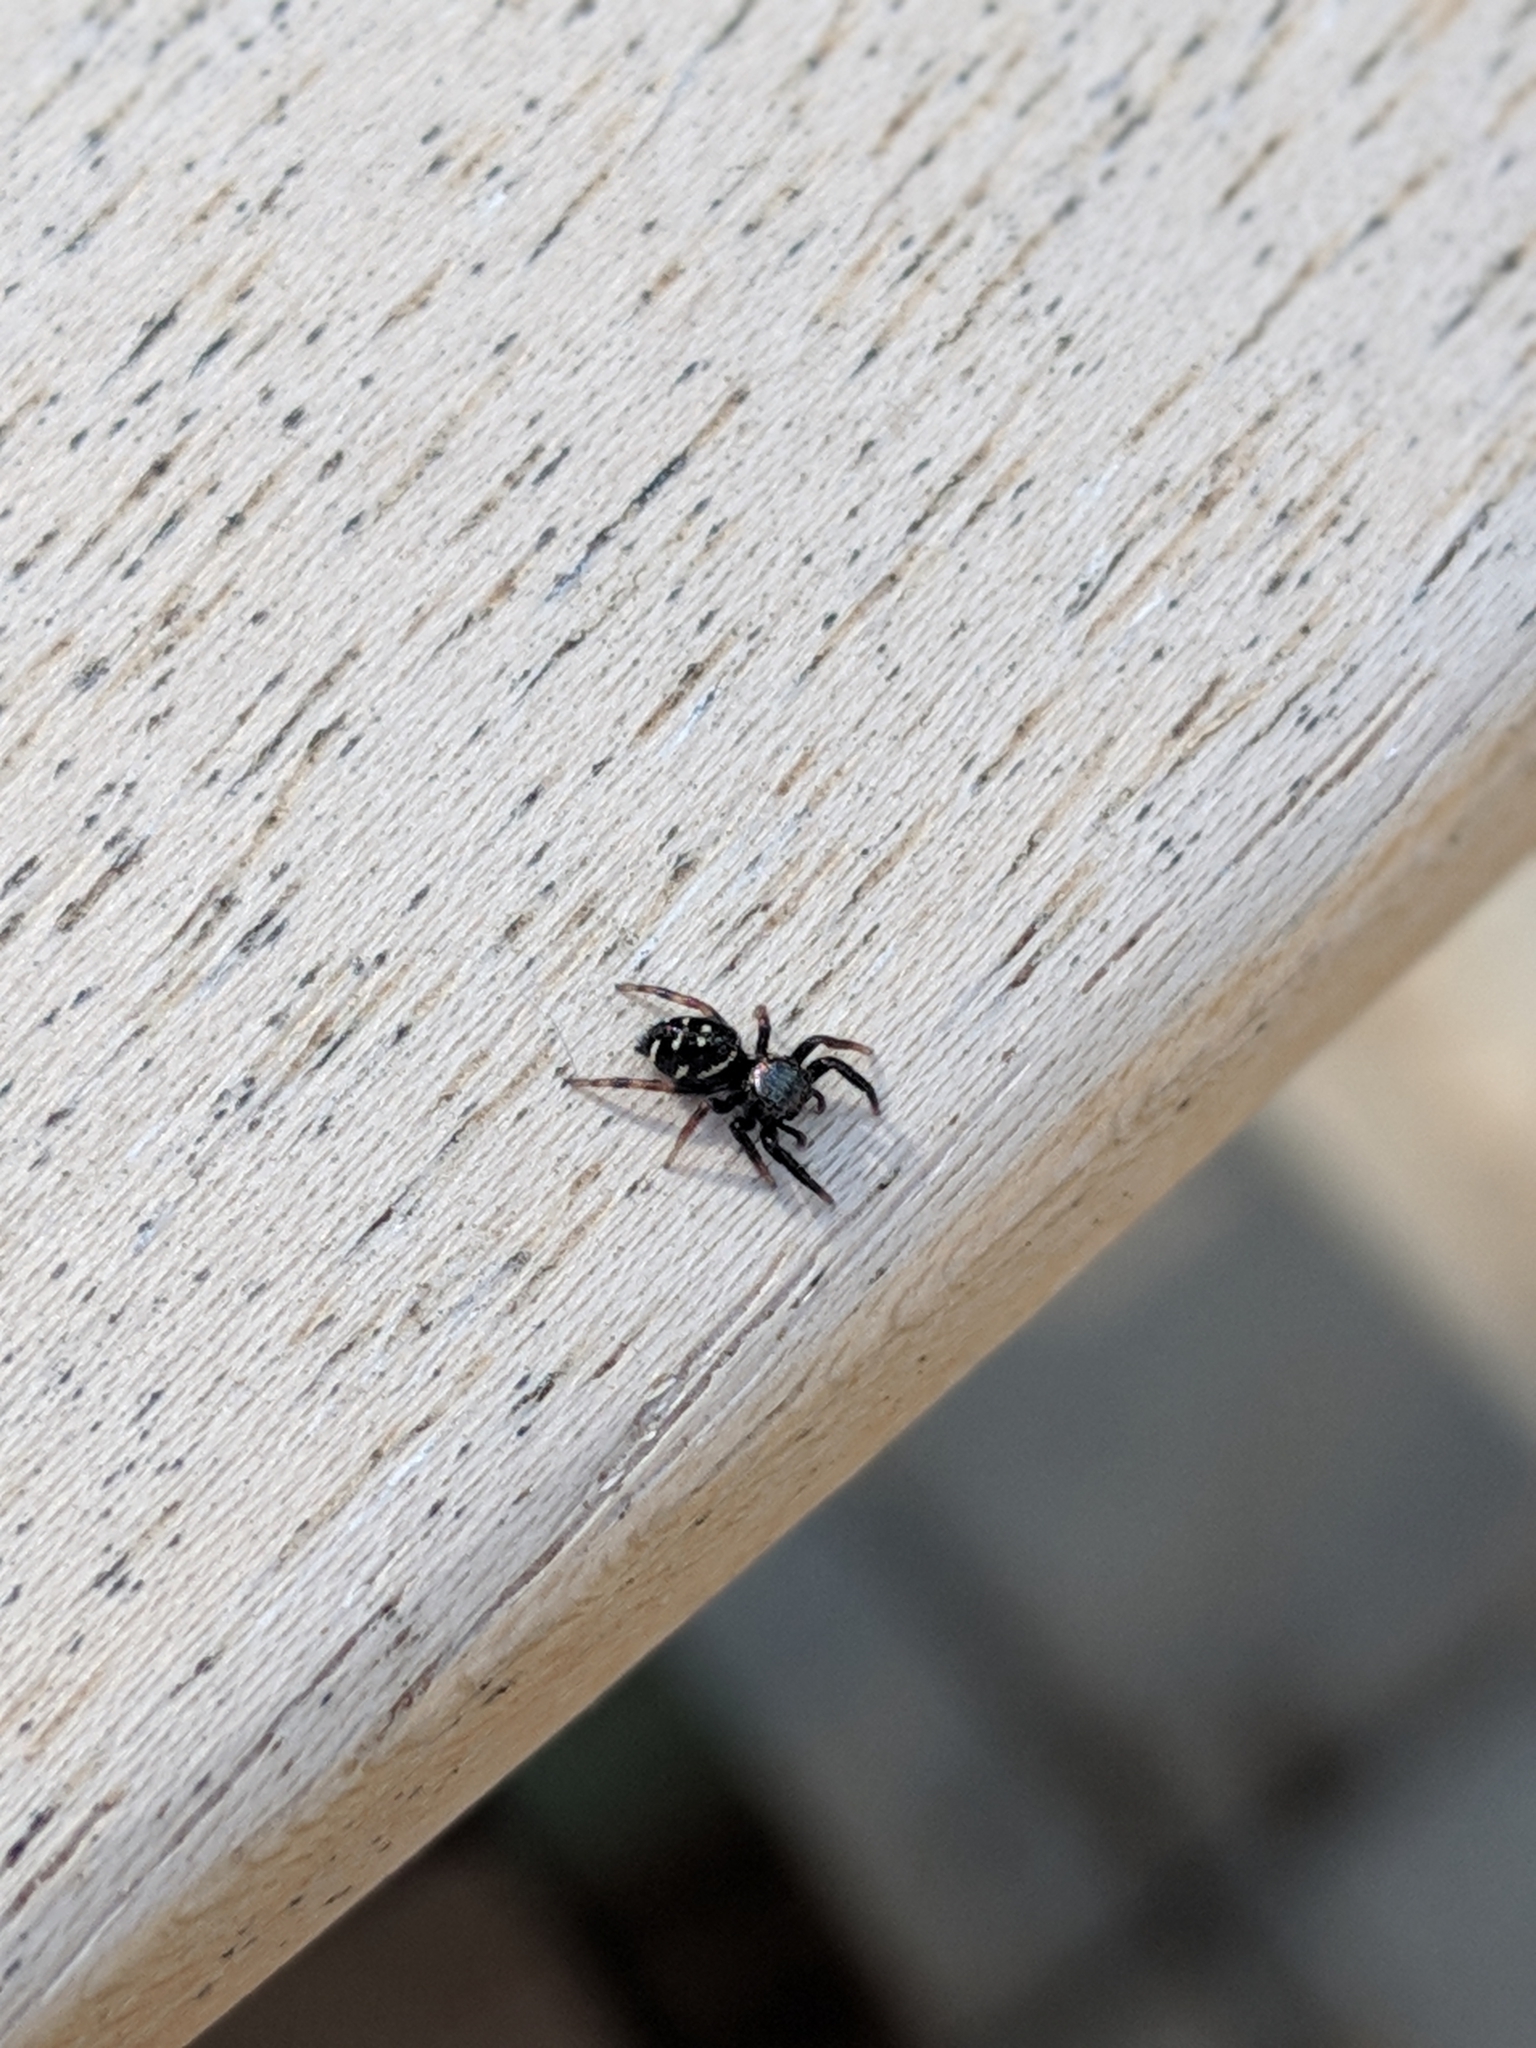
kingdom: Animalia
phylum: Arthropoda
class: Arachnida
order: Araneae
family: Salticidae
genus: Paraphidippus
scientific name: Paraphidippus aurantius
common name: Jumping spiders
